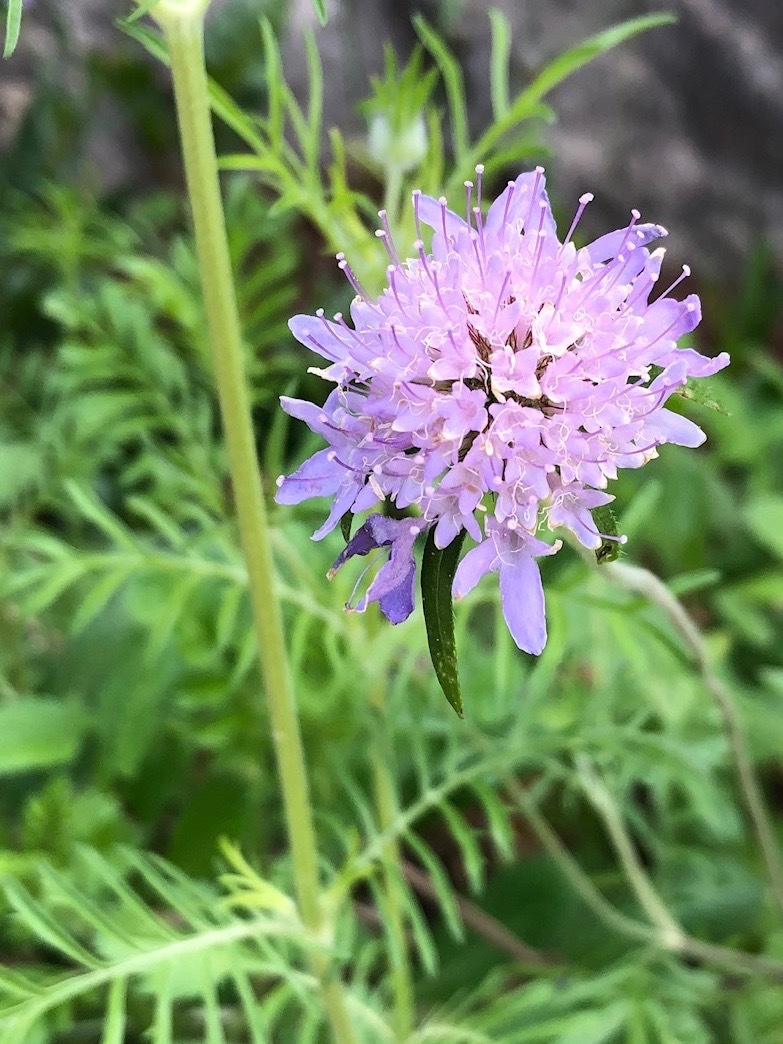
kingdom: Plantae
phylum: Tracheophyta
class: Magnoliopsida
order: Dipsacales
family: Caprifoliaceae
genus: Sixalix
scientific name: Sixalix atropurpurea
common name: Sweet scabious
